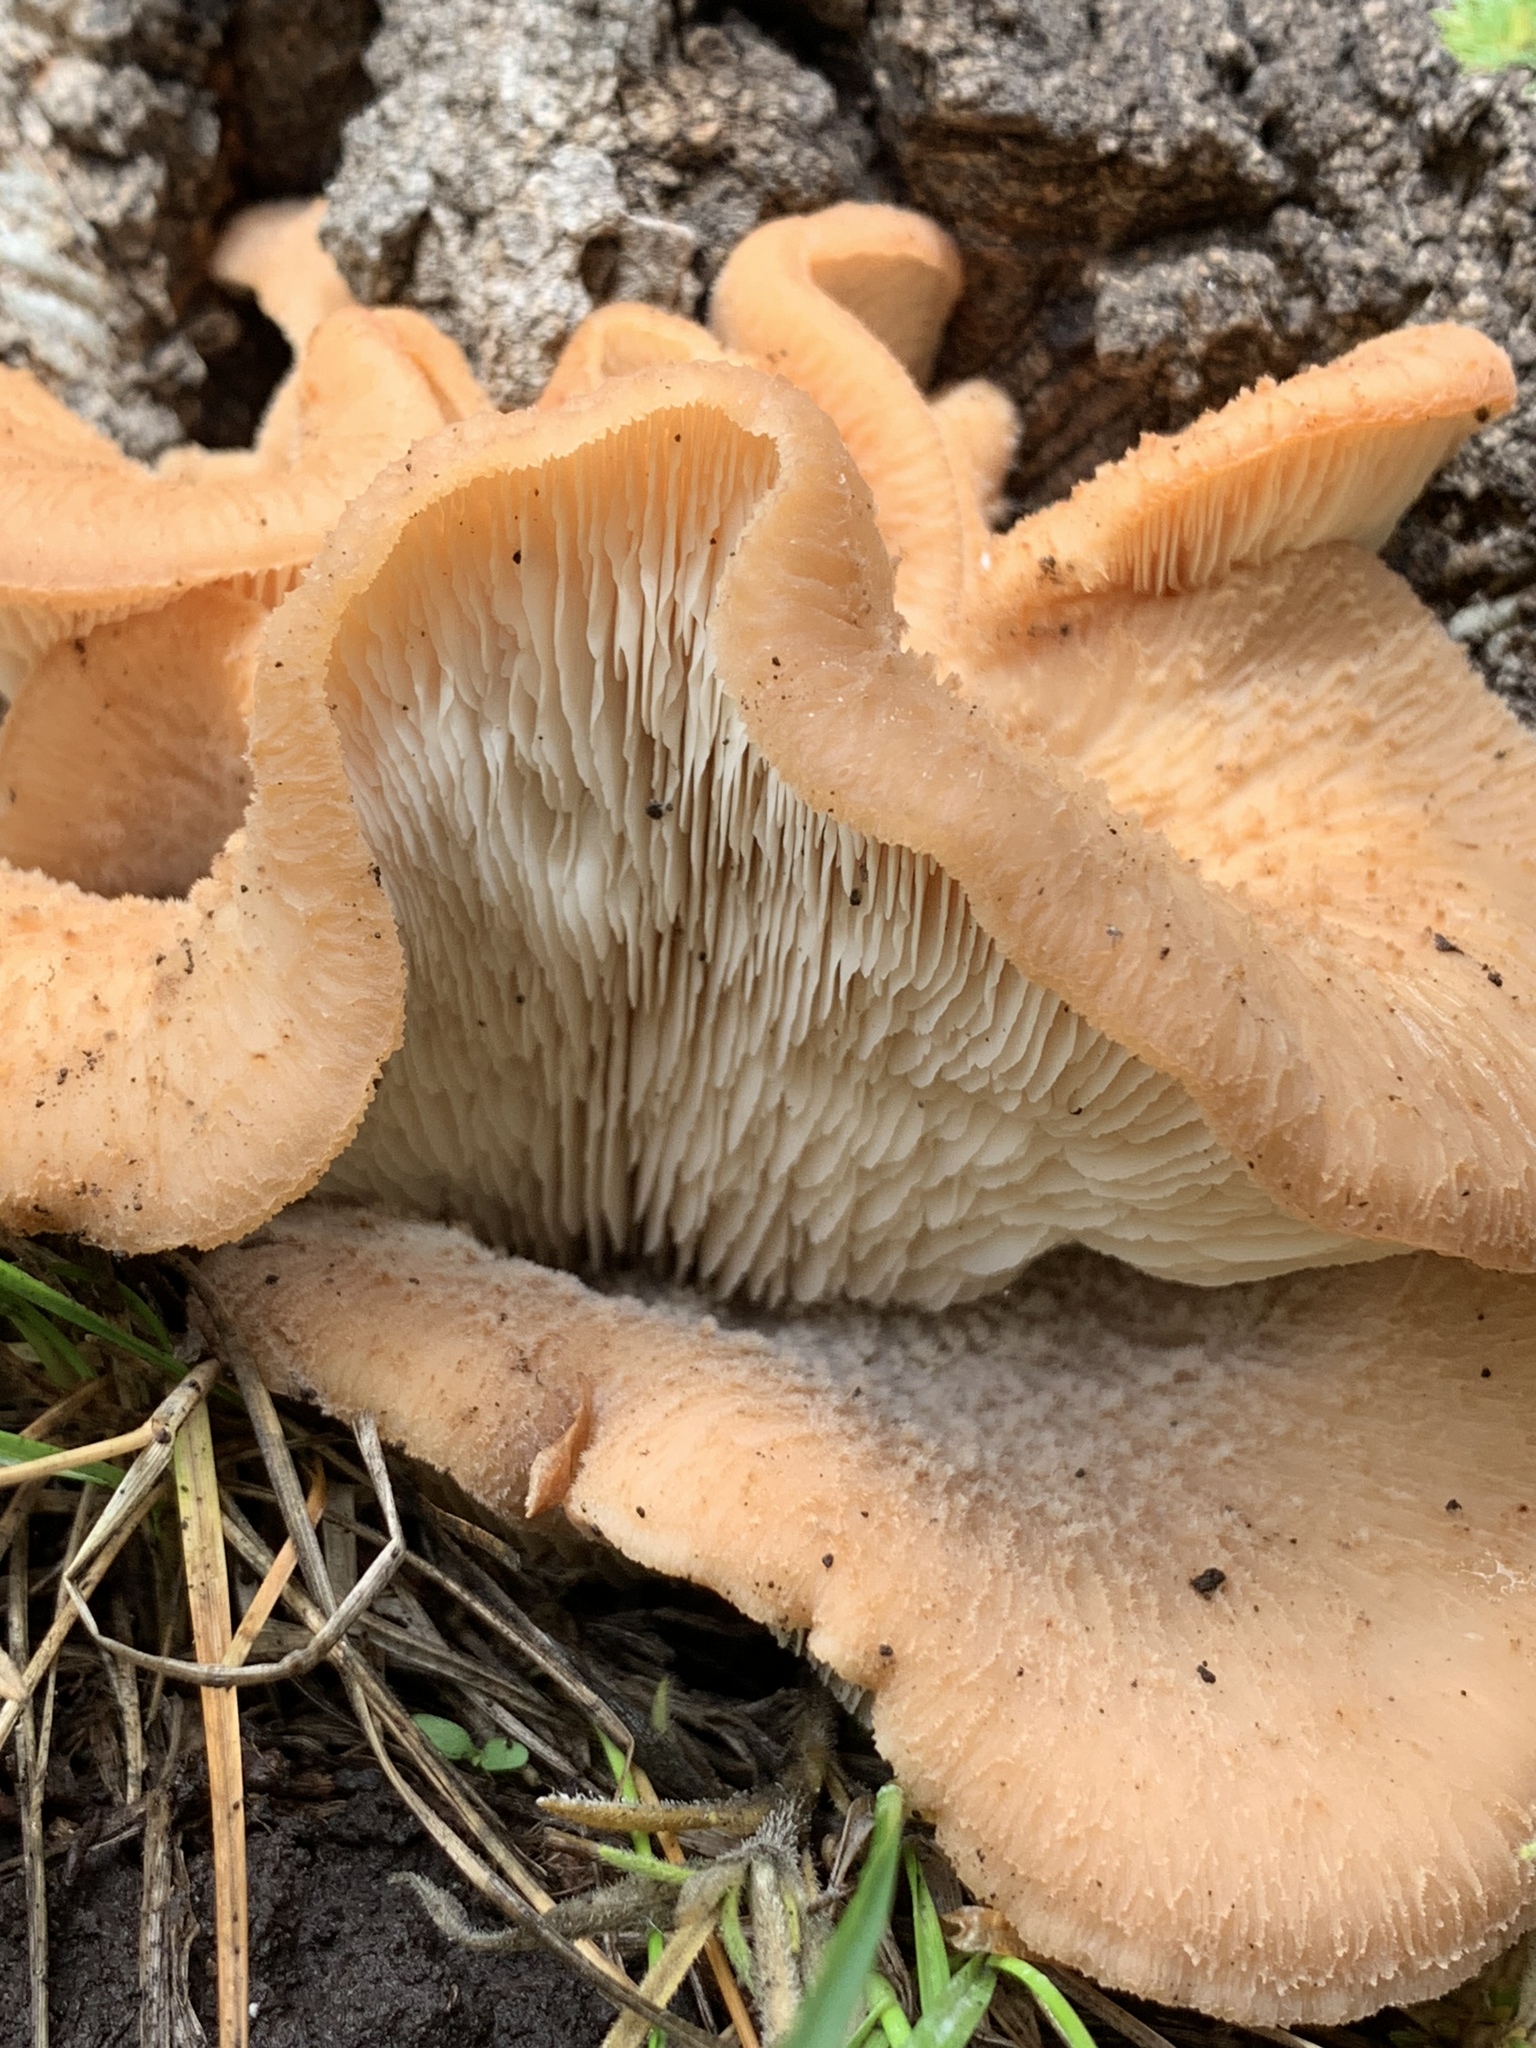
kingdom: Fungi
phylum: Basidiomycota
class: Agaricomycetes
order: Agaricales
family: Phyllotopsidaceae
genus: Phyllotopsis
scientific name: Phyllotopsis nidulans
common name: Orange mock oyster
